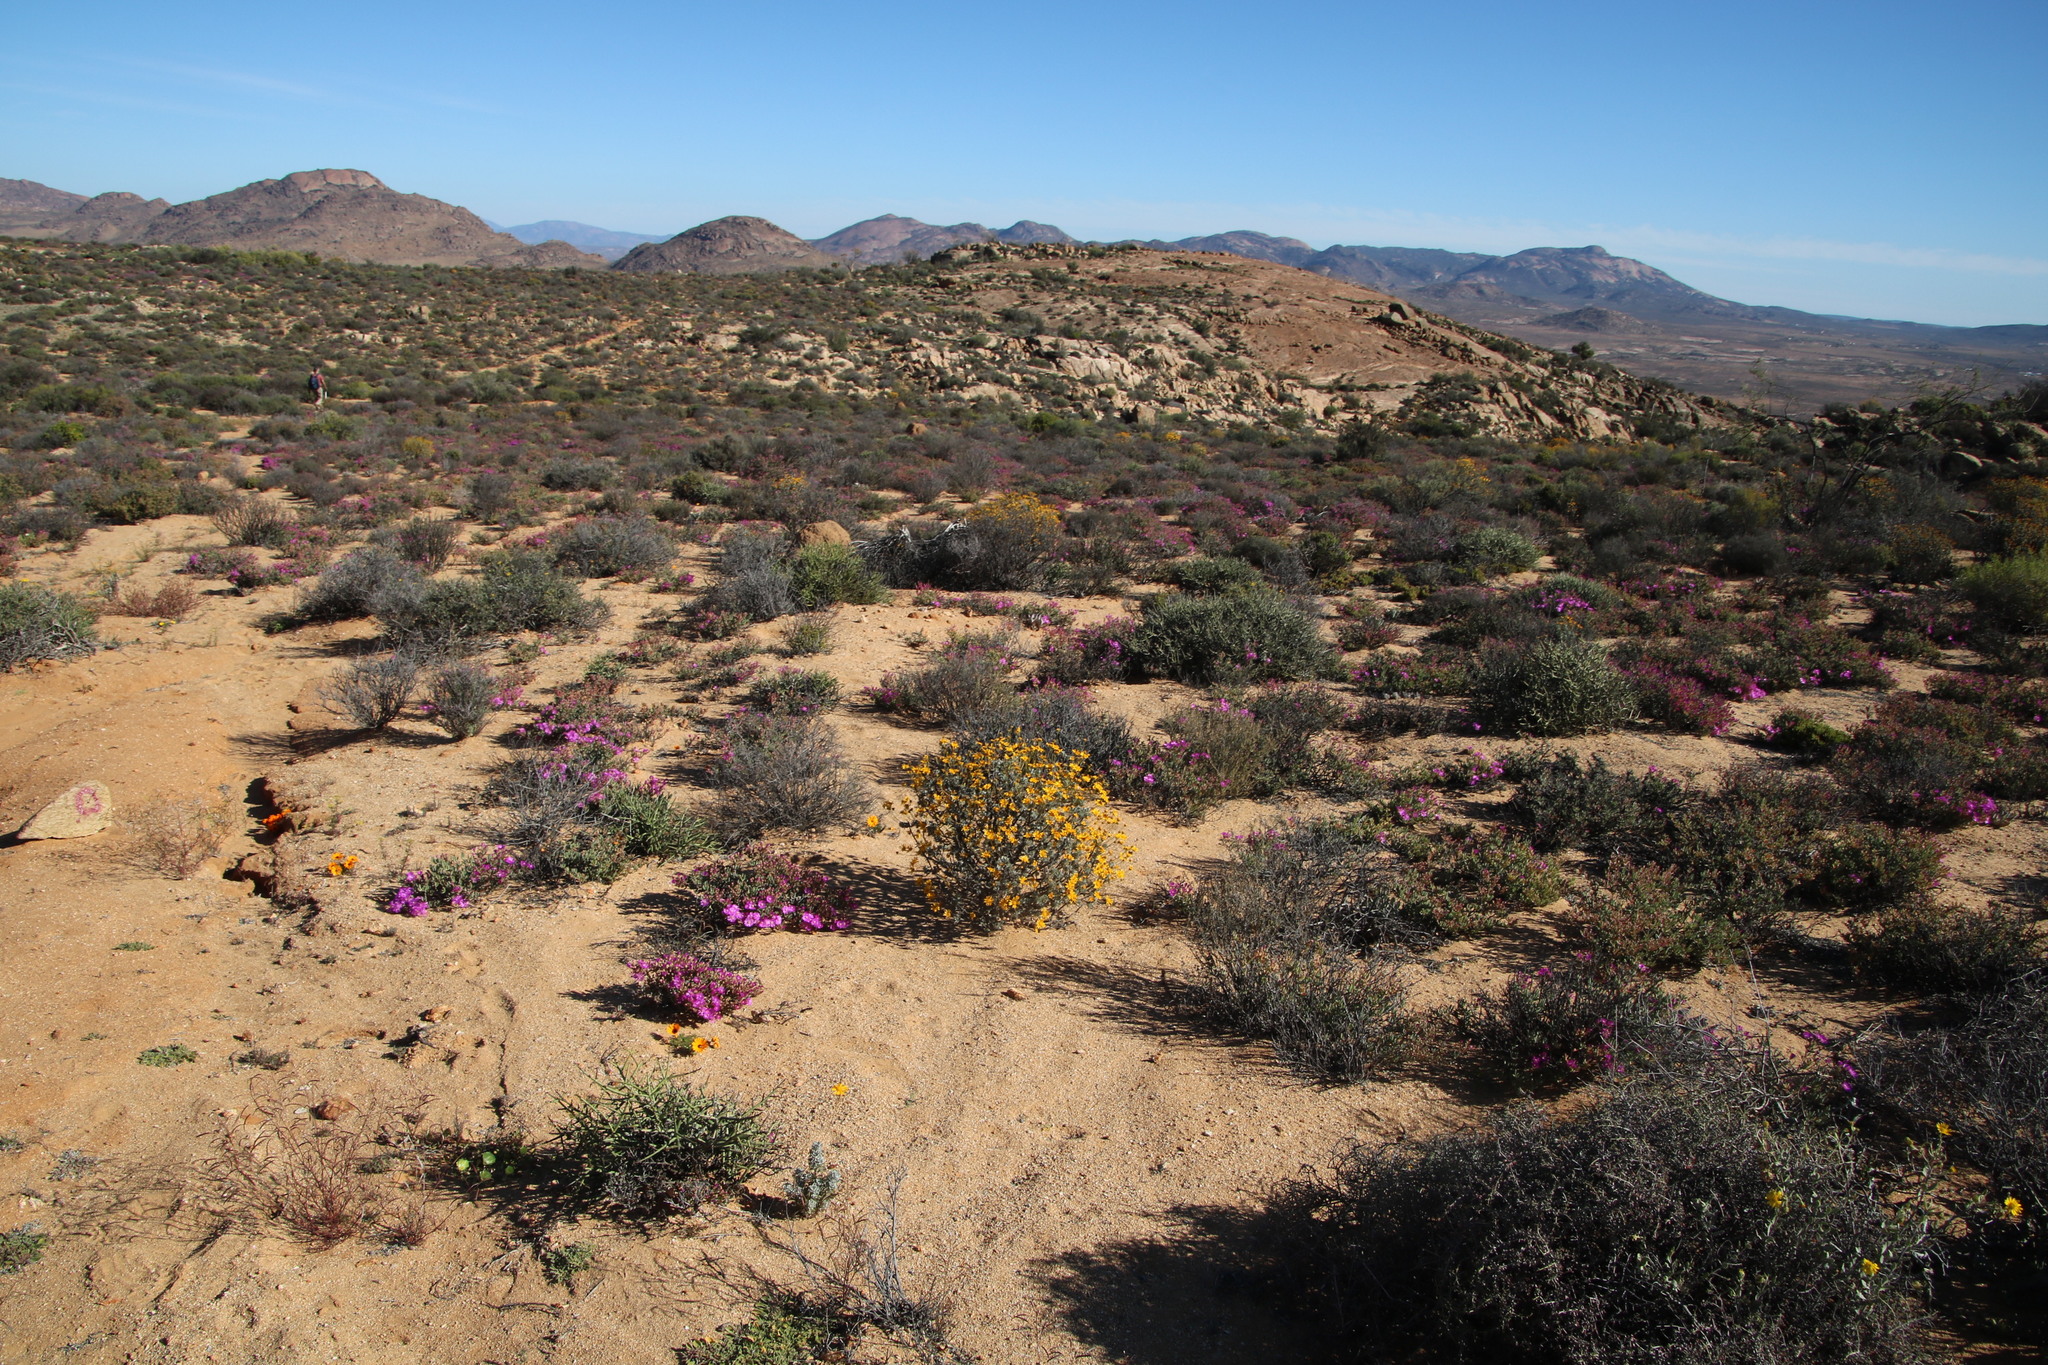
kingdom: Plantae
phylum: Tracheophyta
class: Magnoliopsida
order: Asterales
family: Asteraceae
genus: Euryops
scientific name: Euryops dregeanus
